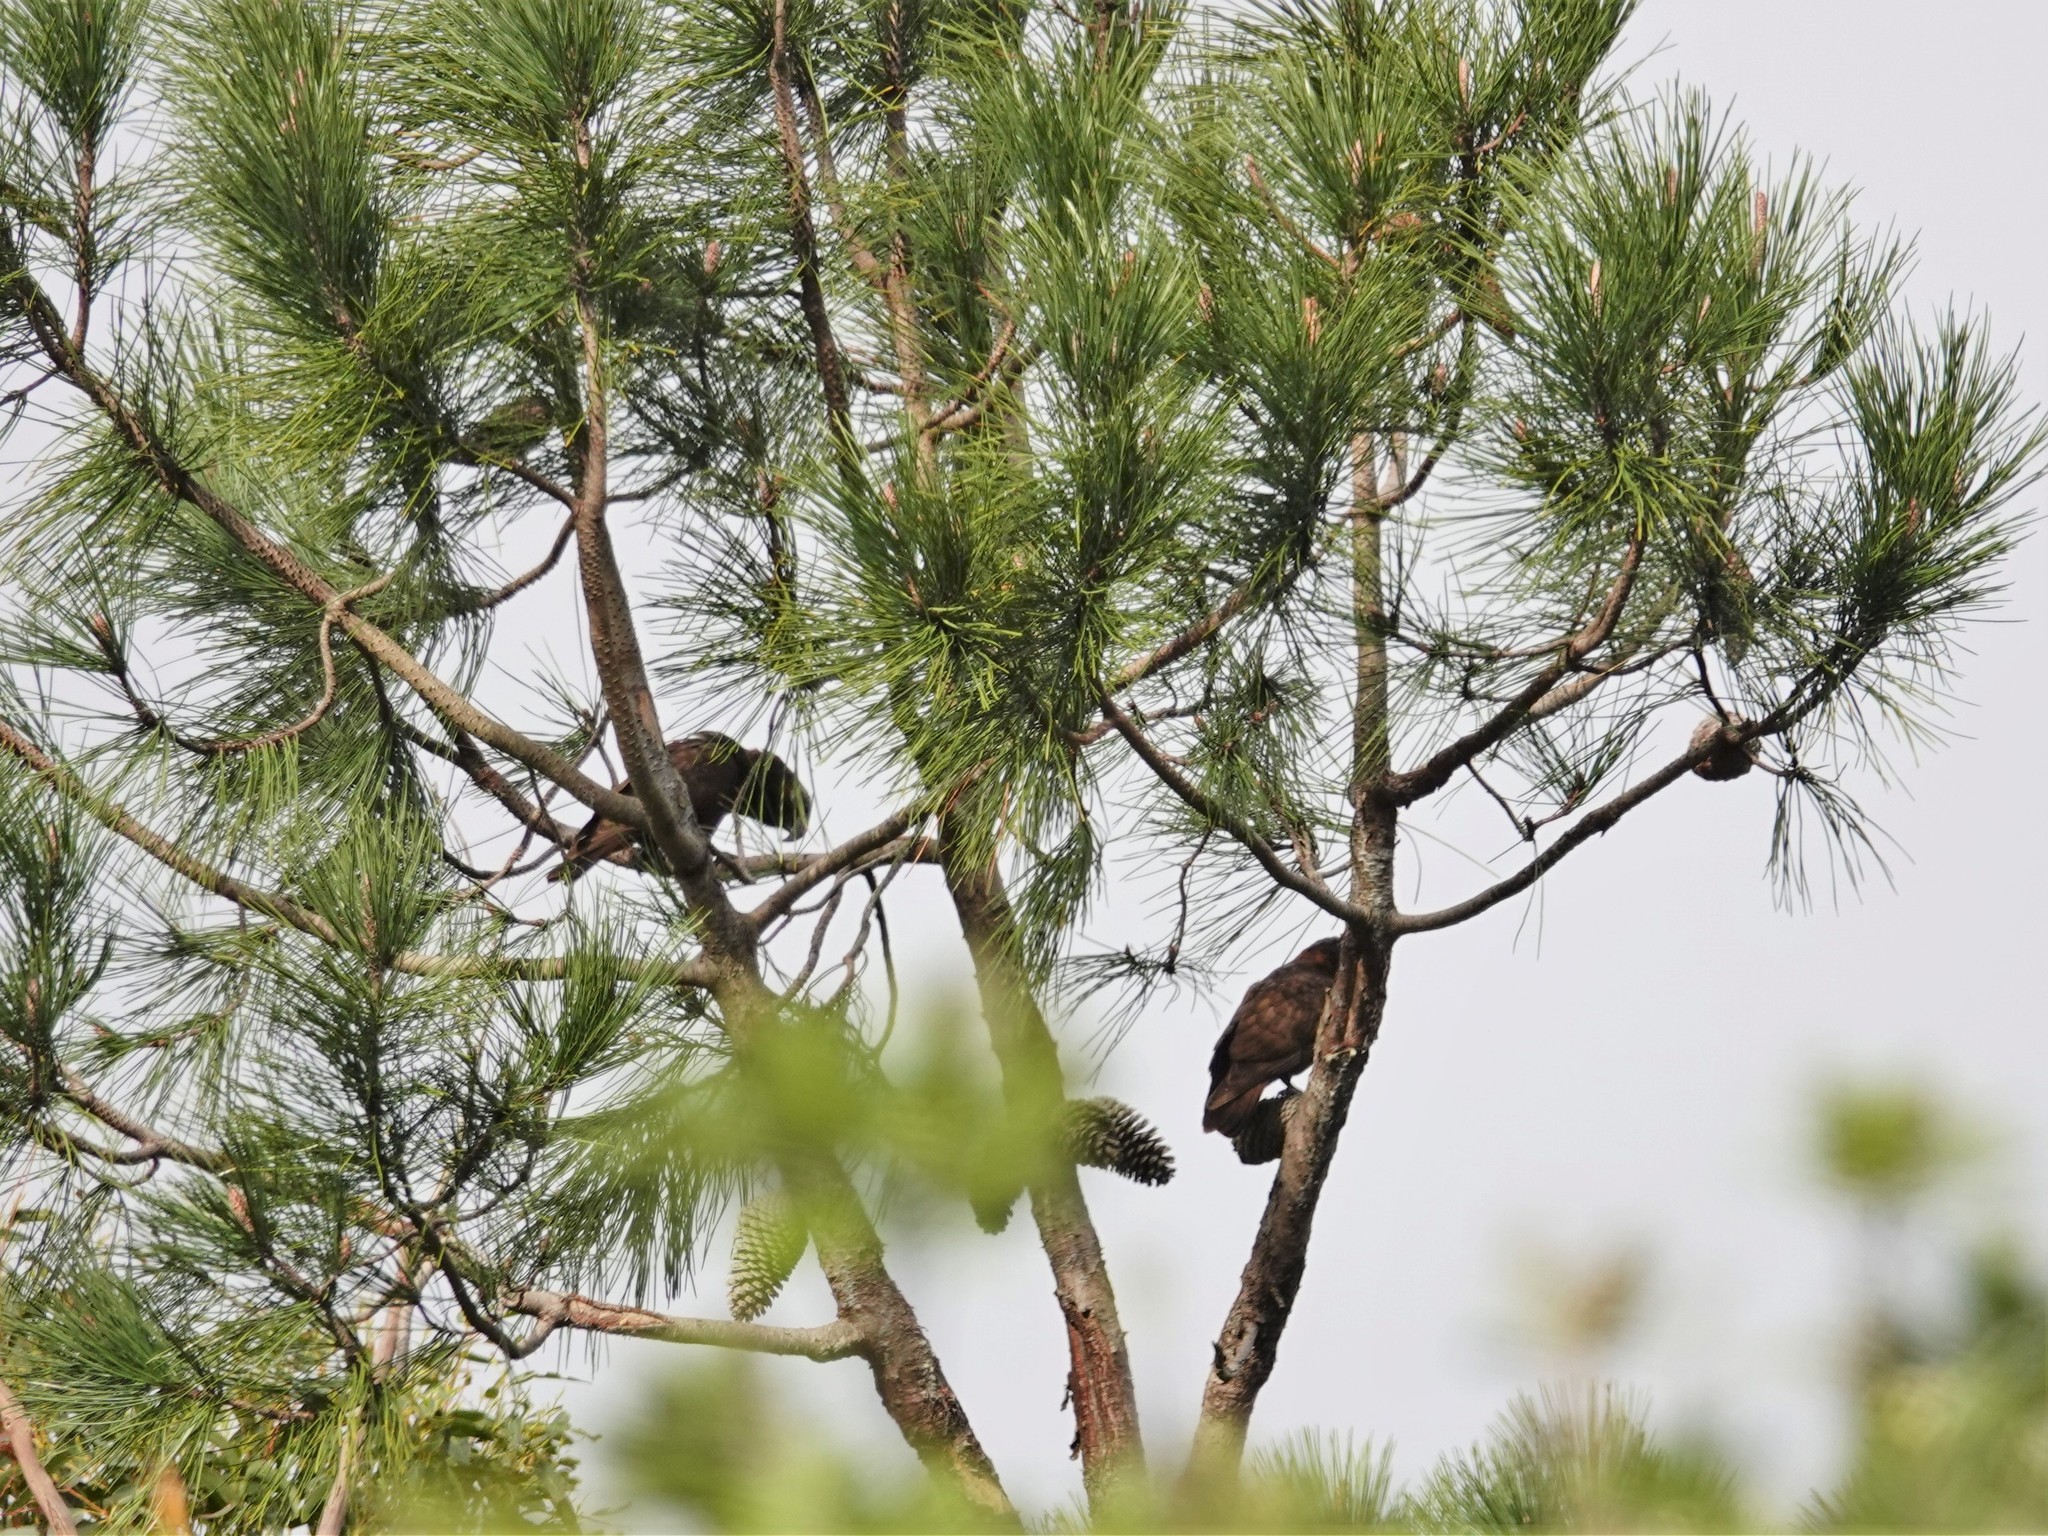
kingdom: Animalia
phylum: Chordata
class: Aves
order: Psittaciformes
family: Psittacidae
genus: Nestor
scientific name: Nestor meridionalis
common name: New zealand kaka
